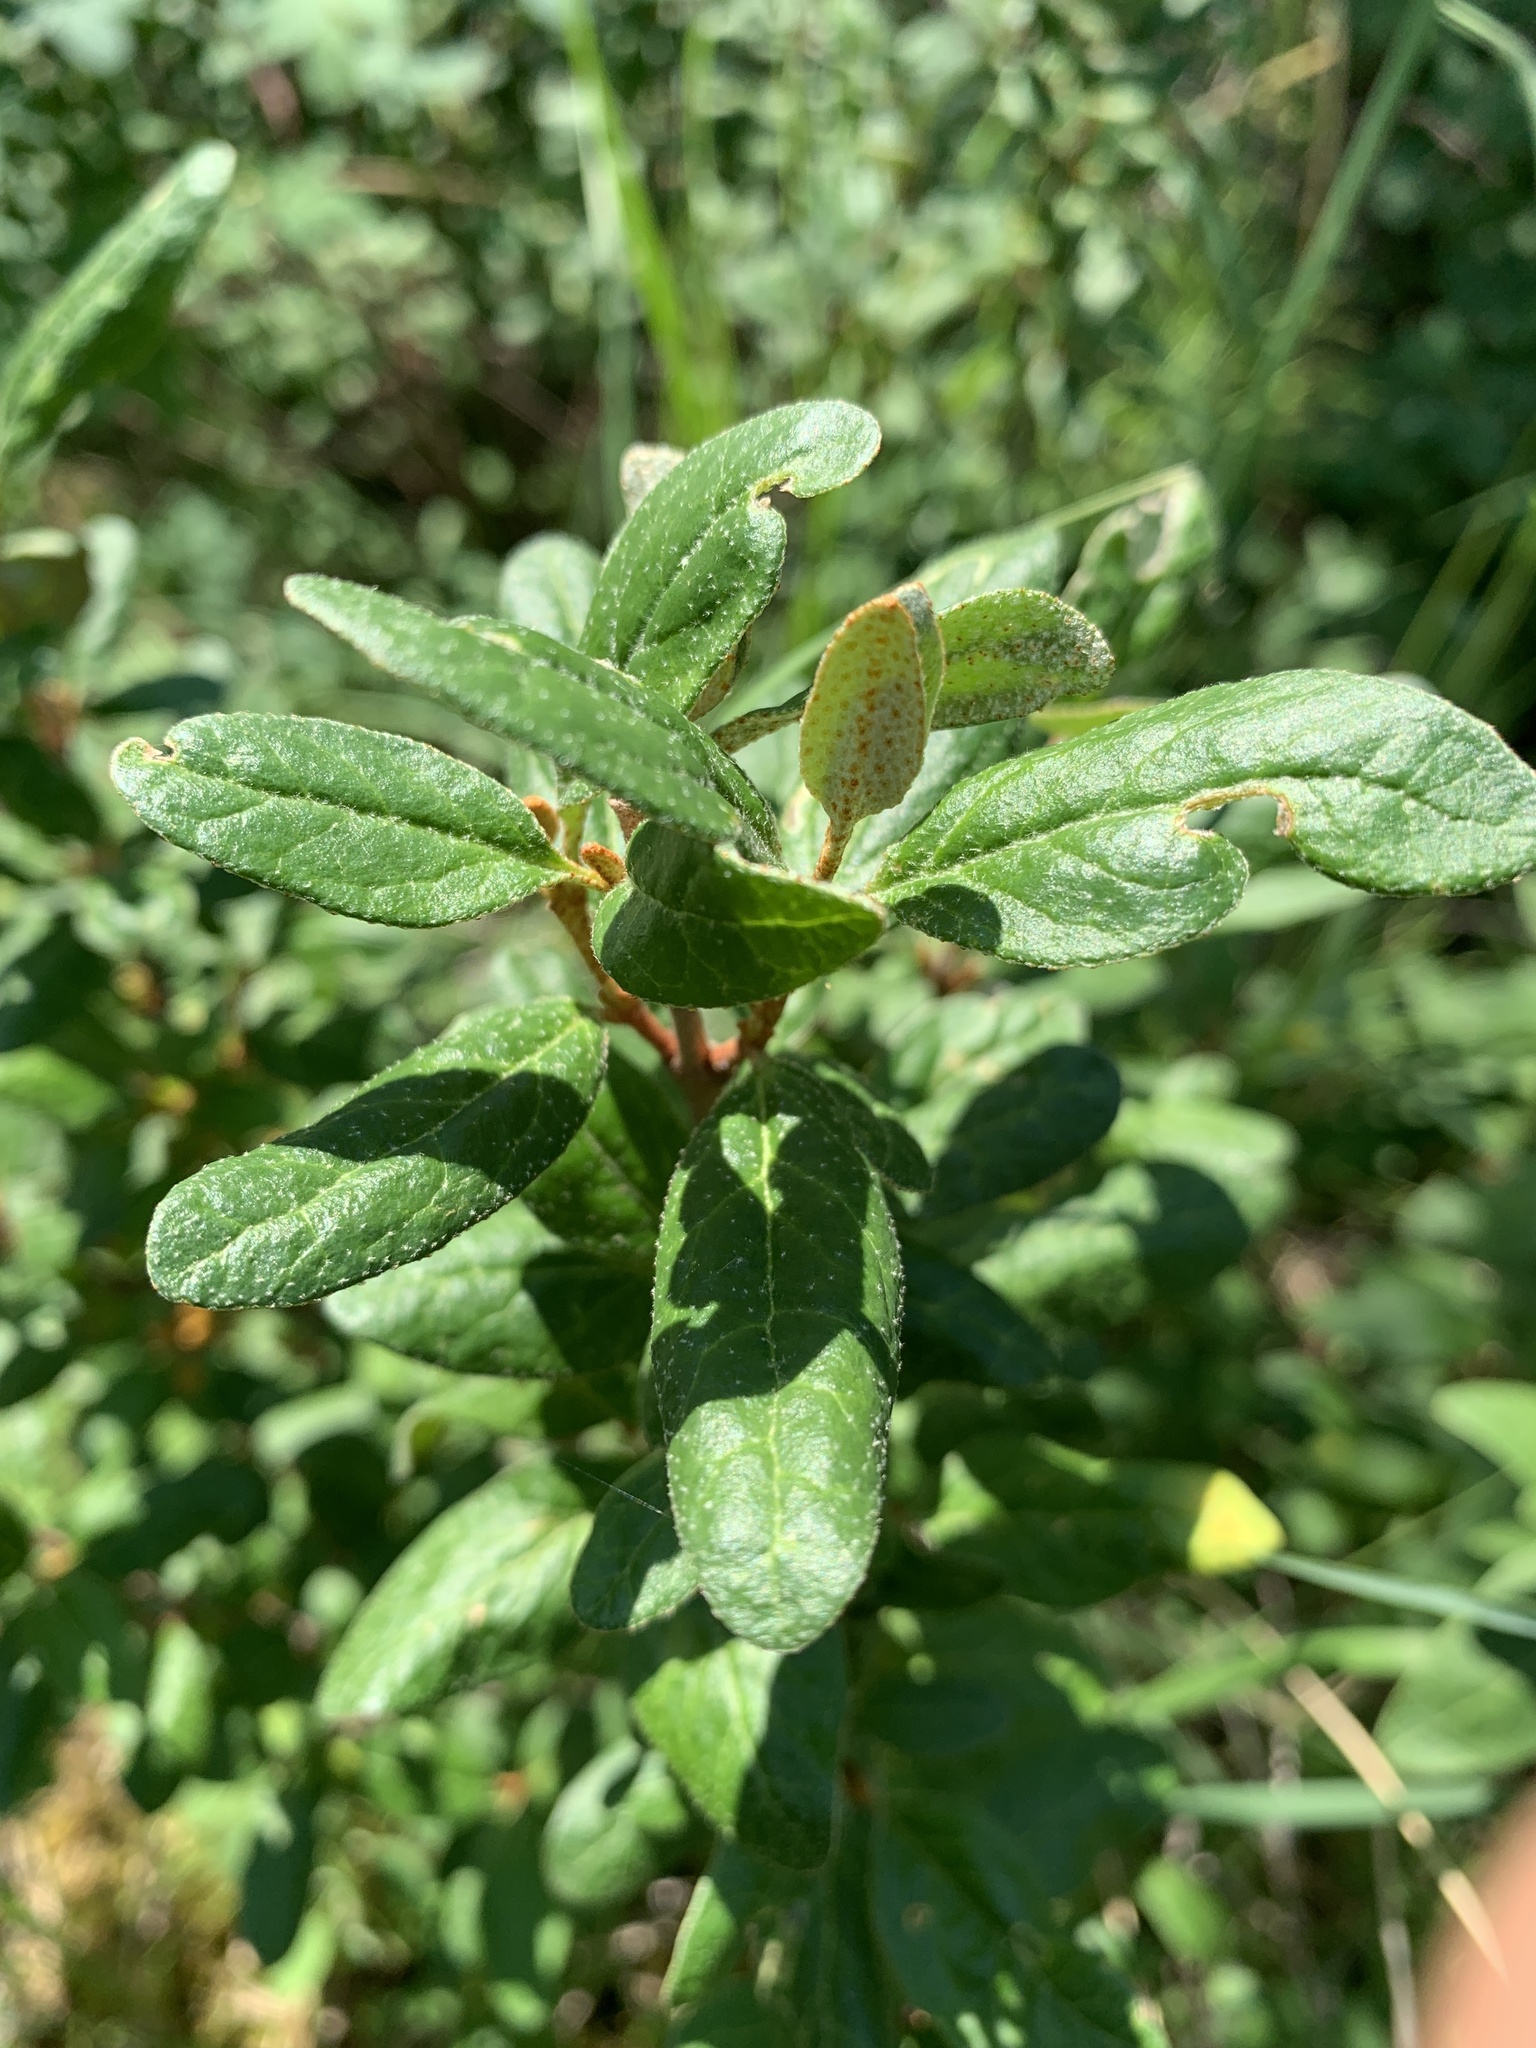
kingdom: Plantae
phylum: Tracheophyta
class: Magnoliopsida
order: Rosales
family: Elaeagnaceae
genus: Shepherdia
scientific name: Shepherdia canadensis
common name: Soapberry
